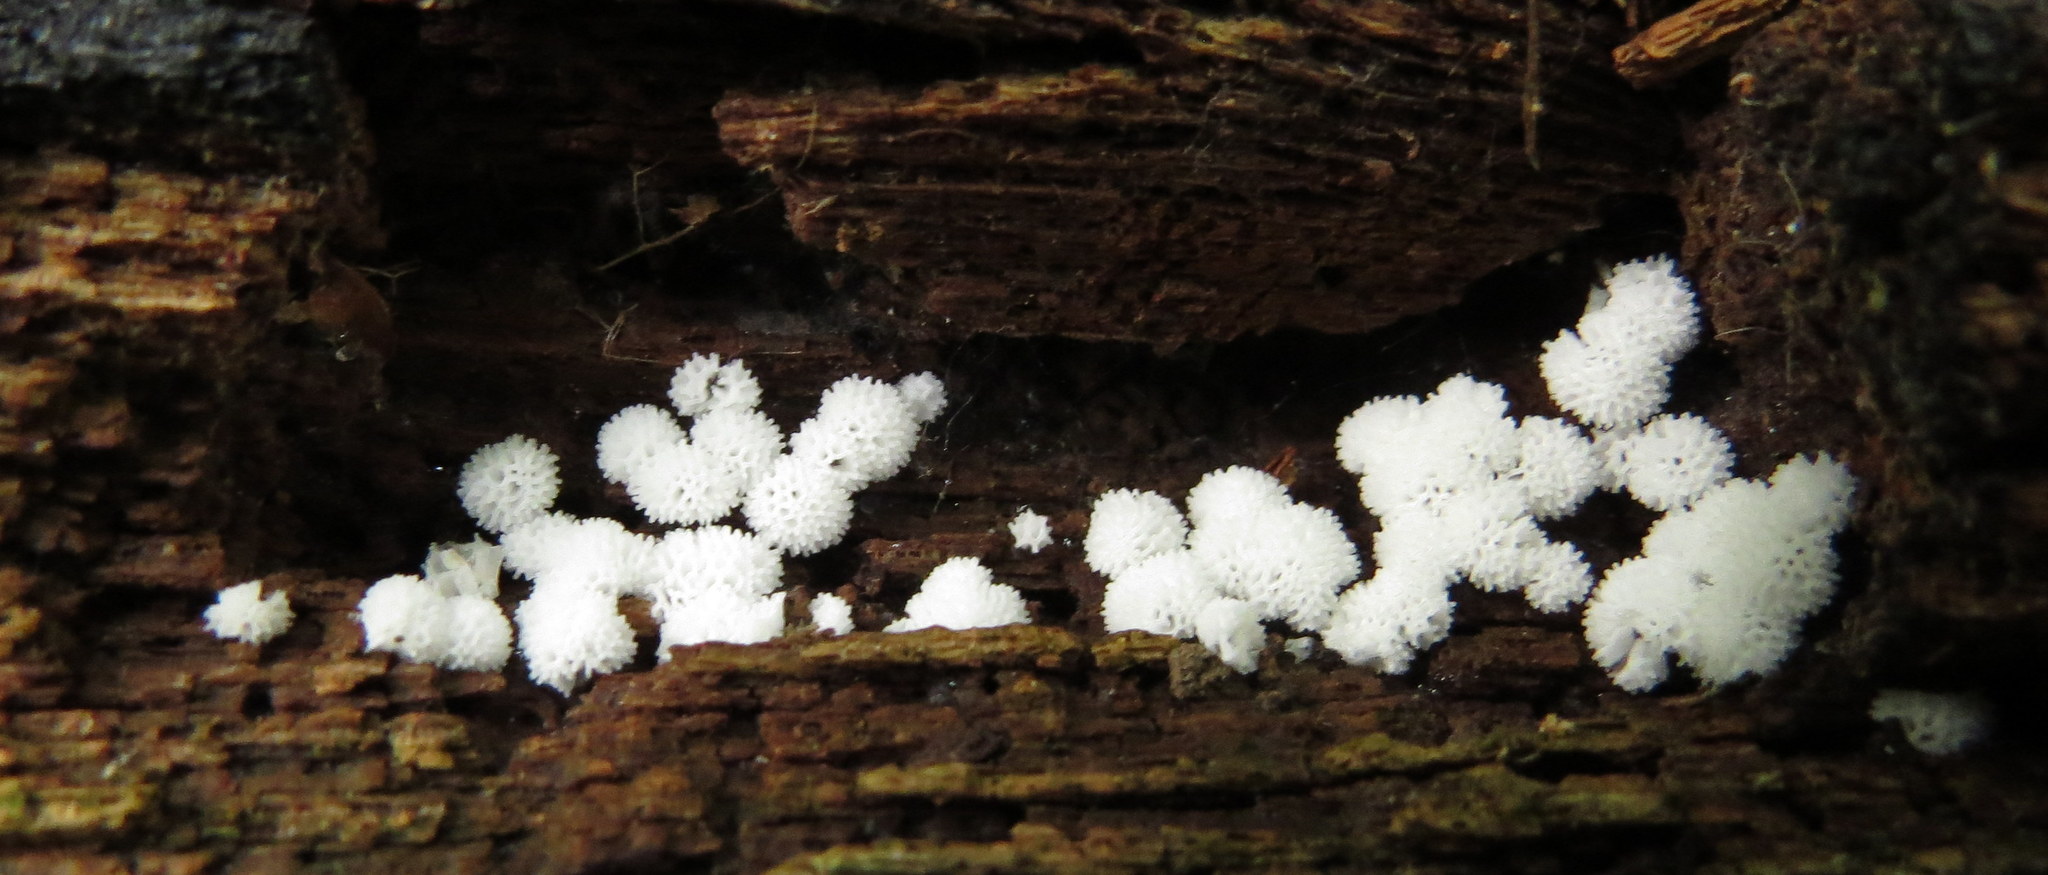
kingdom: Protozoa
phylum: Mycetozoa
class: Protosteliomycetes
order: Ceratiomyxales
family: Ceratiomyxaceae
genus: Ceratiomyxa
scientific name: Ceratiomyxa fruticulosa
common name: Honeycomb coral slime mold
